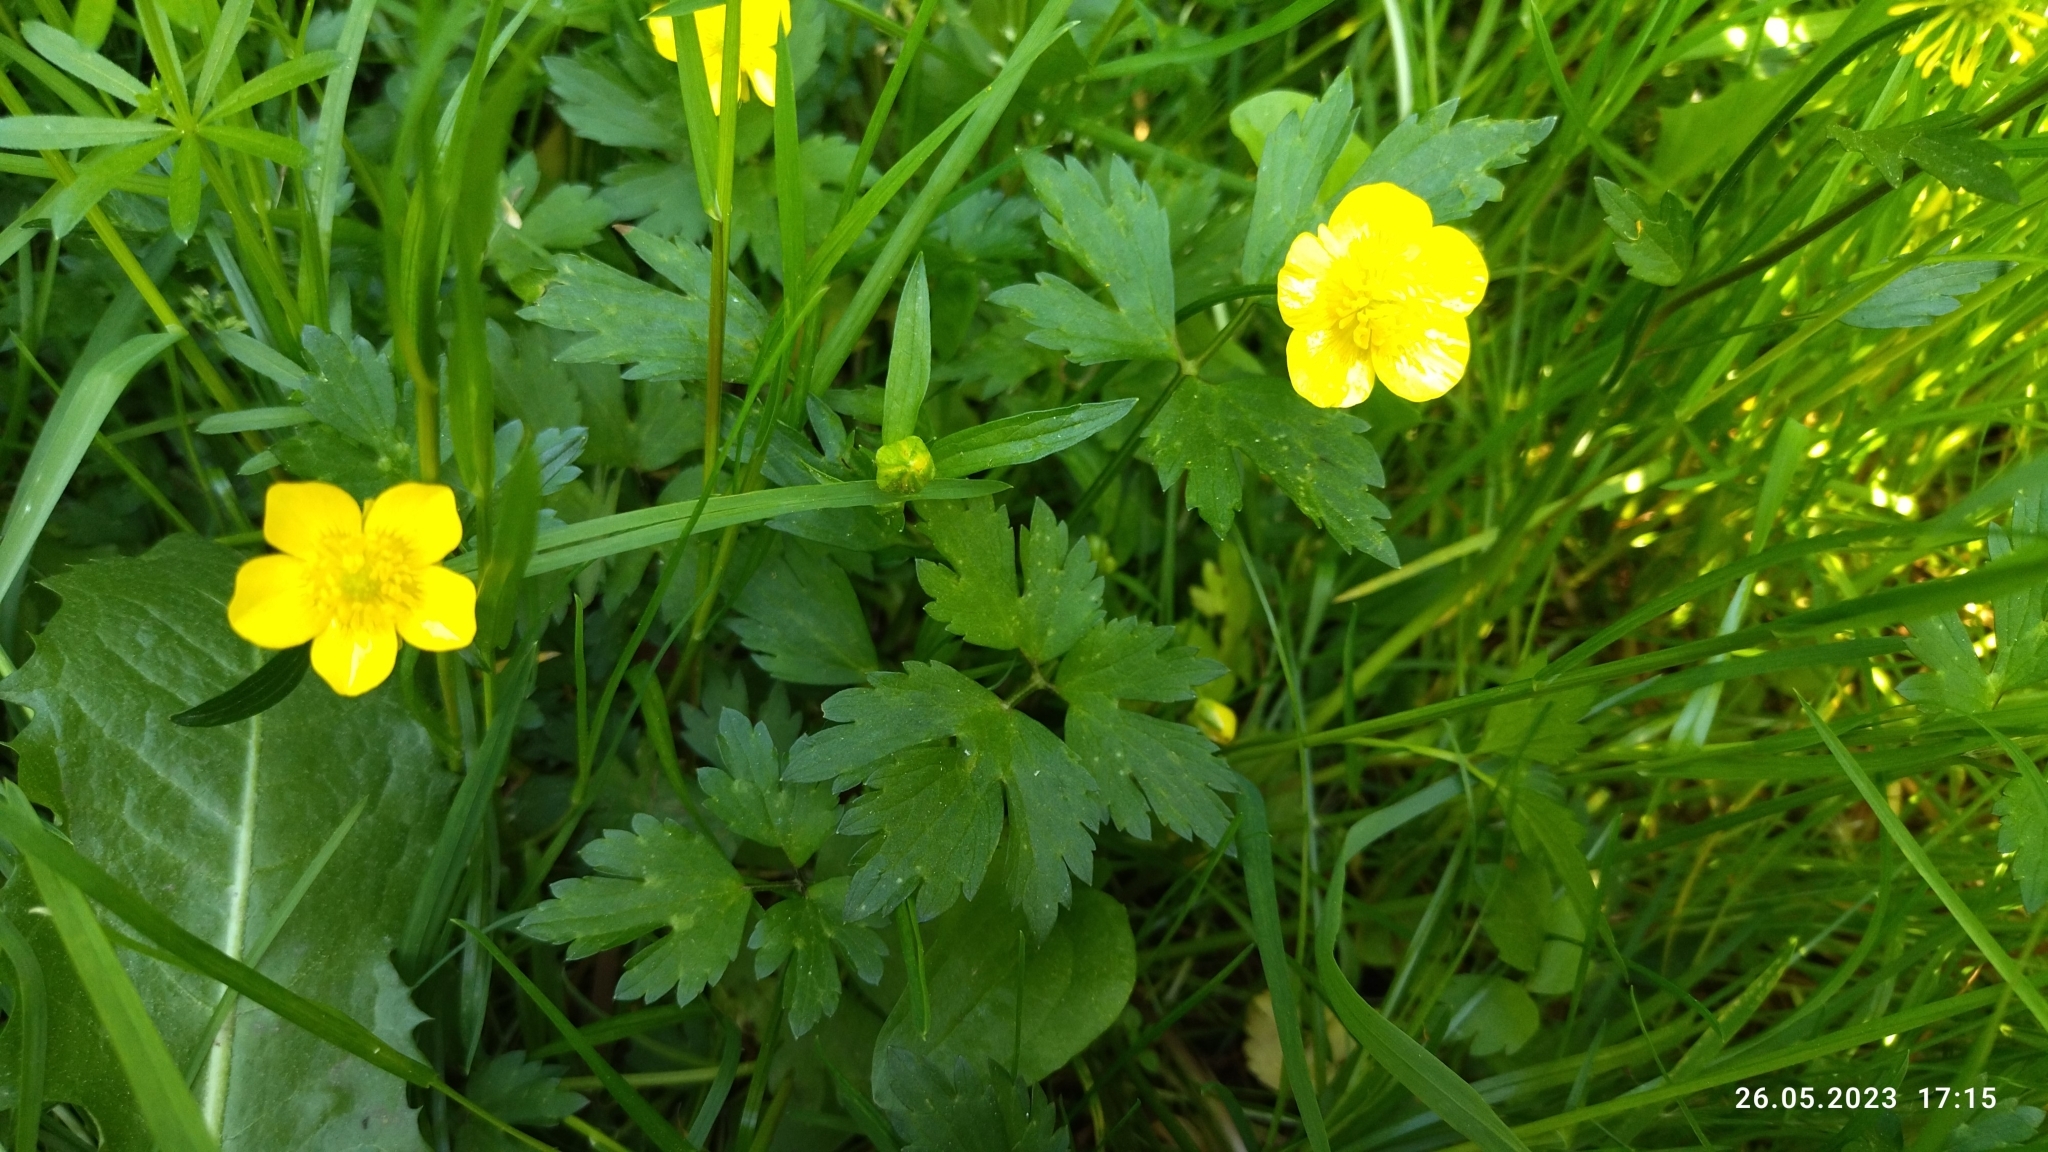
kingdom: Plantae
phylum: Tracheophyta
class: Magnoliopsida
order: Ranunculales
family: Ranunculaceae
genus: Ranunculus
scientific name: Ranunculus repens
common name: Creeping buttercup
